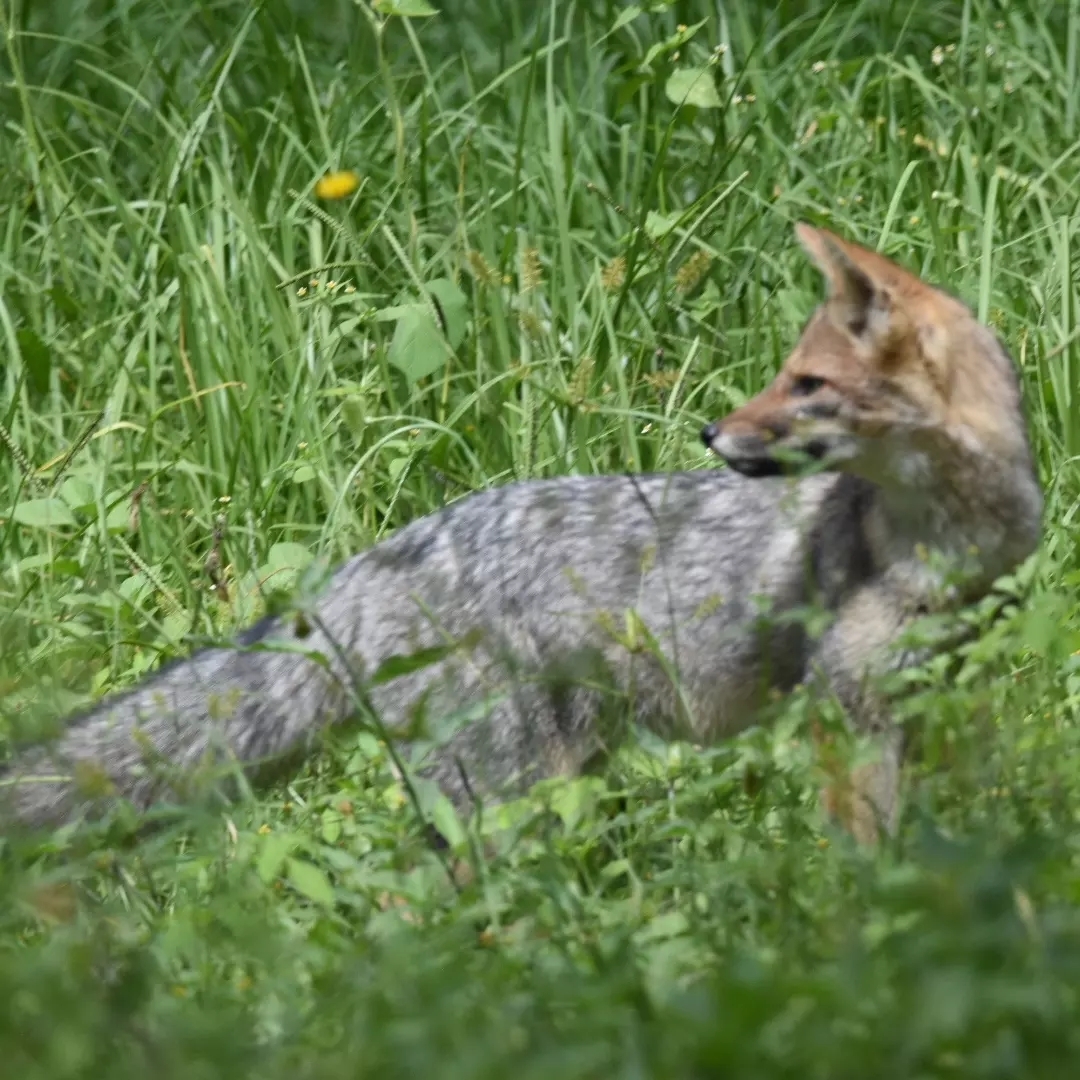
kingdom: Animalia
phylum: Chordata
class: Mammalia
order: Carnivora
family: Canidae
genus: Lycalopex
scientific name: Lycalopex gymnocercus
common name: Pampas fox
